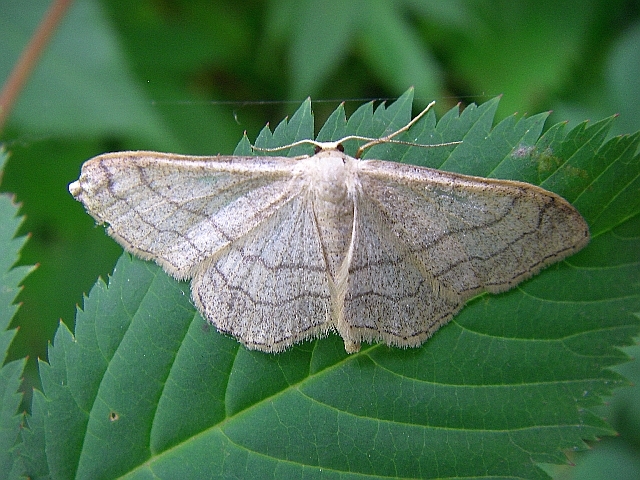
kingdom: Animalia
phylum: Arthropoda
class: Insecta
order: Lepidoptera
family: Geometridae
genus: Idaea
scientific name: Idaea aversata
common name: Riband wave
